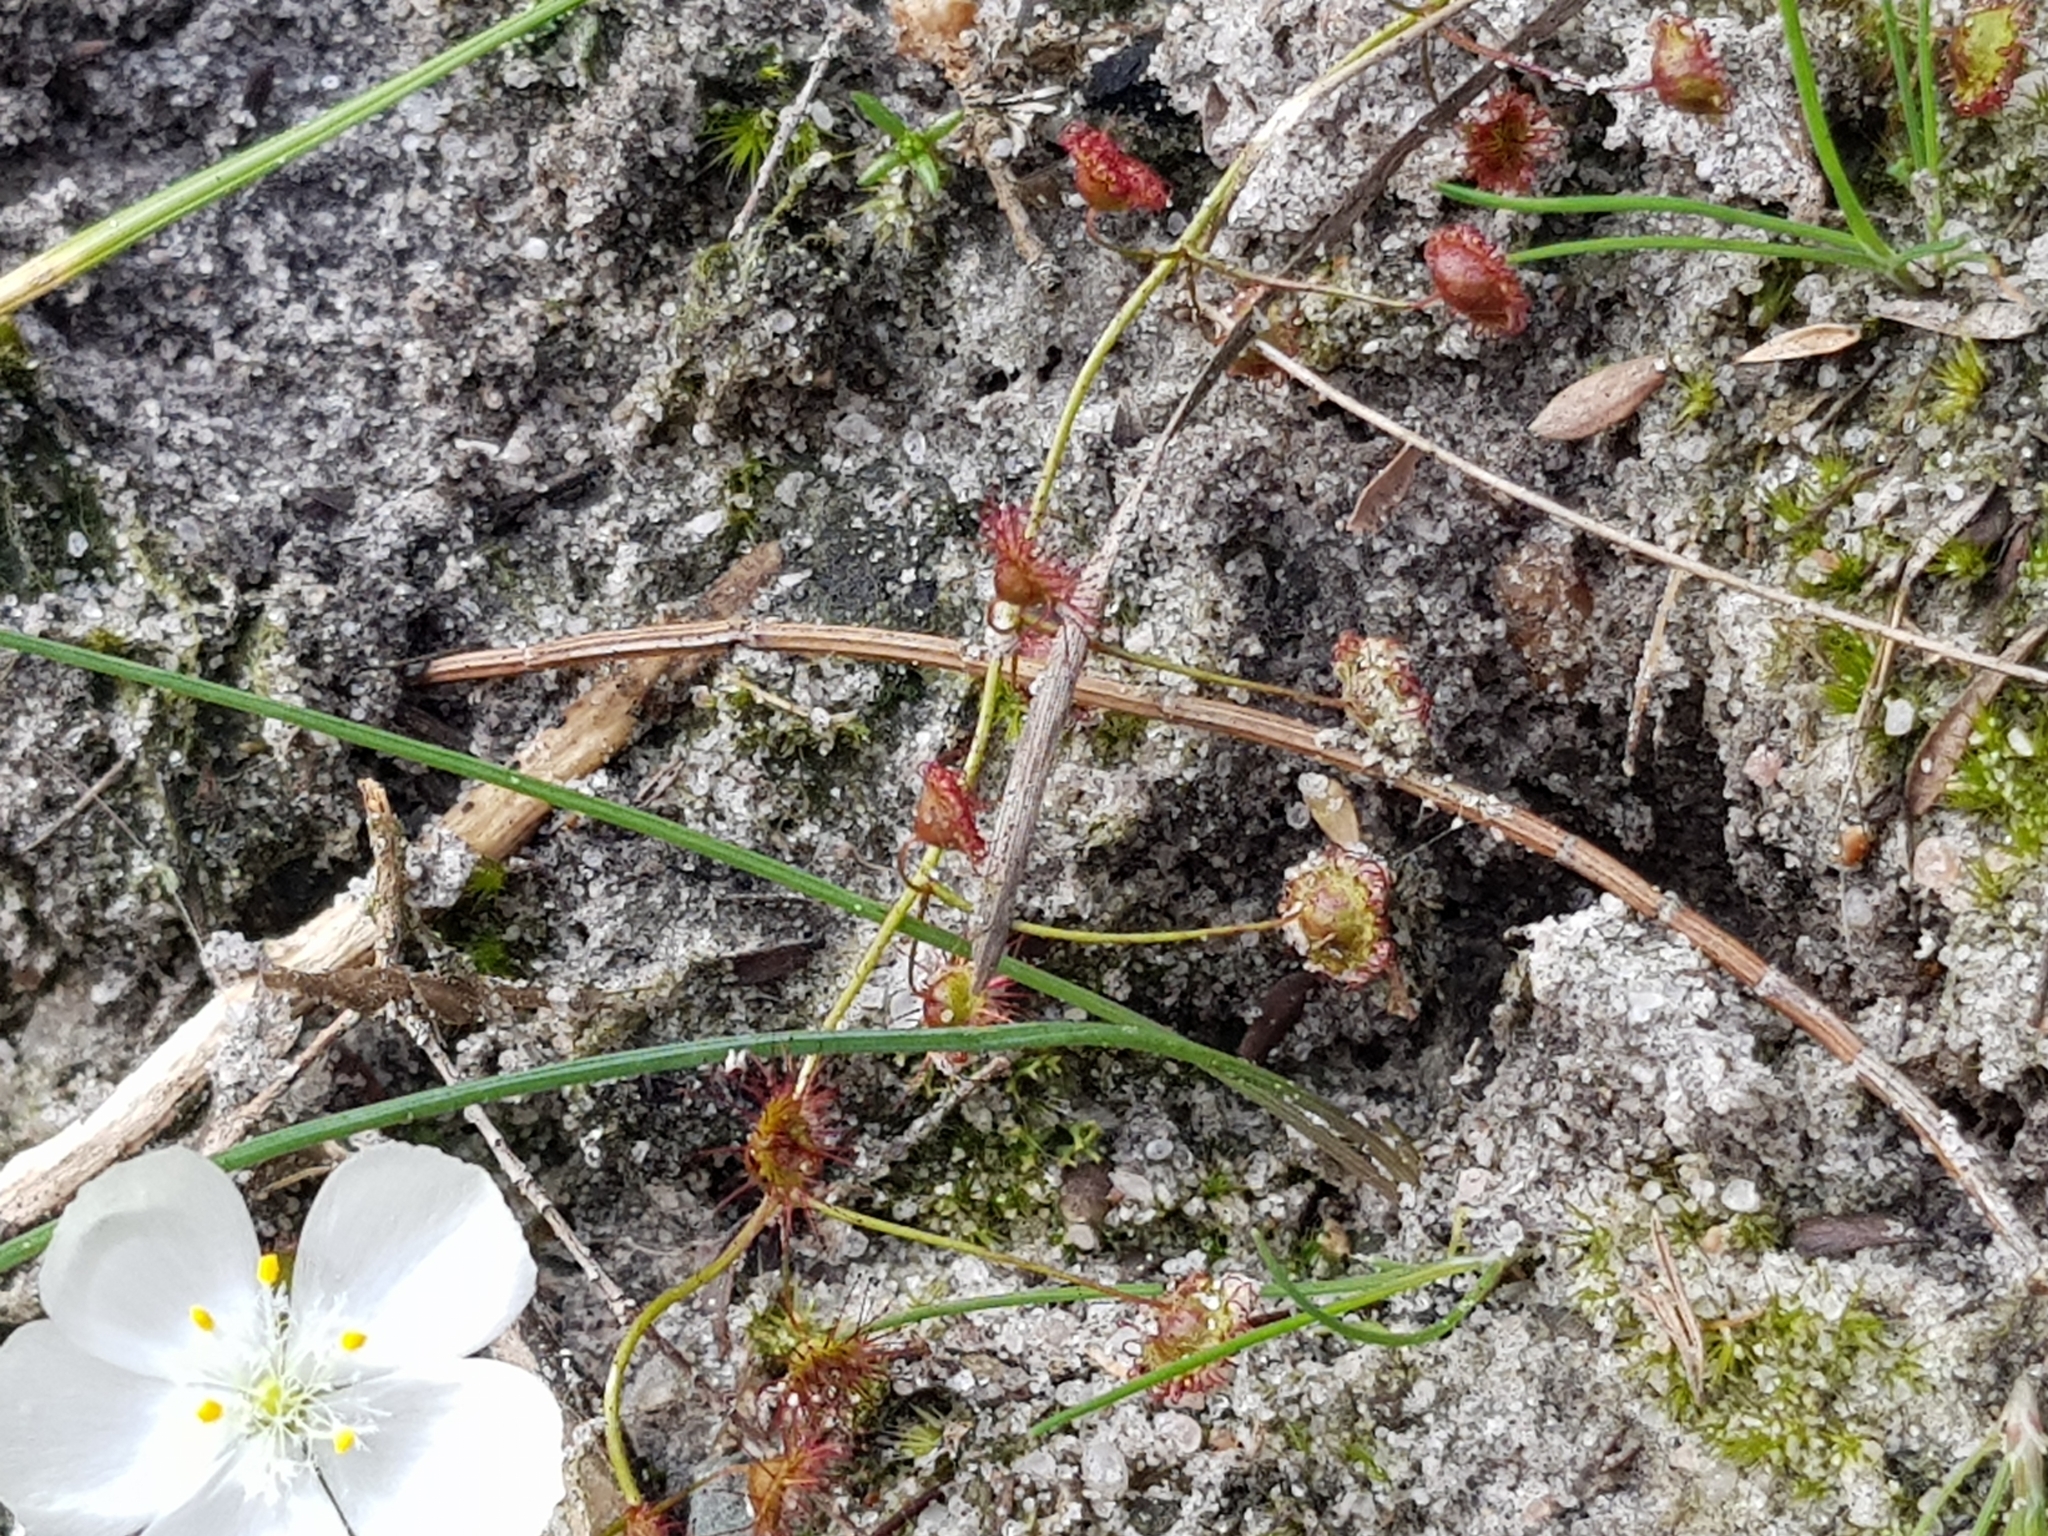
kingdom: Plantae
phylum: Tracheophyta
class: Magnoliopsida
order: Caryophyllales
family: Droseraceae
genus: Drosera
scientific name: Drosera planchonii
